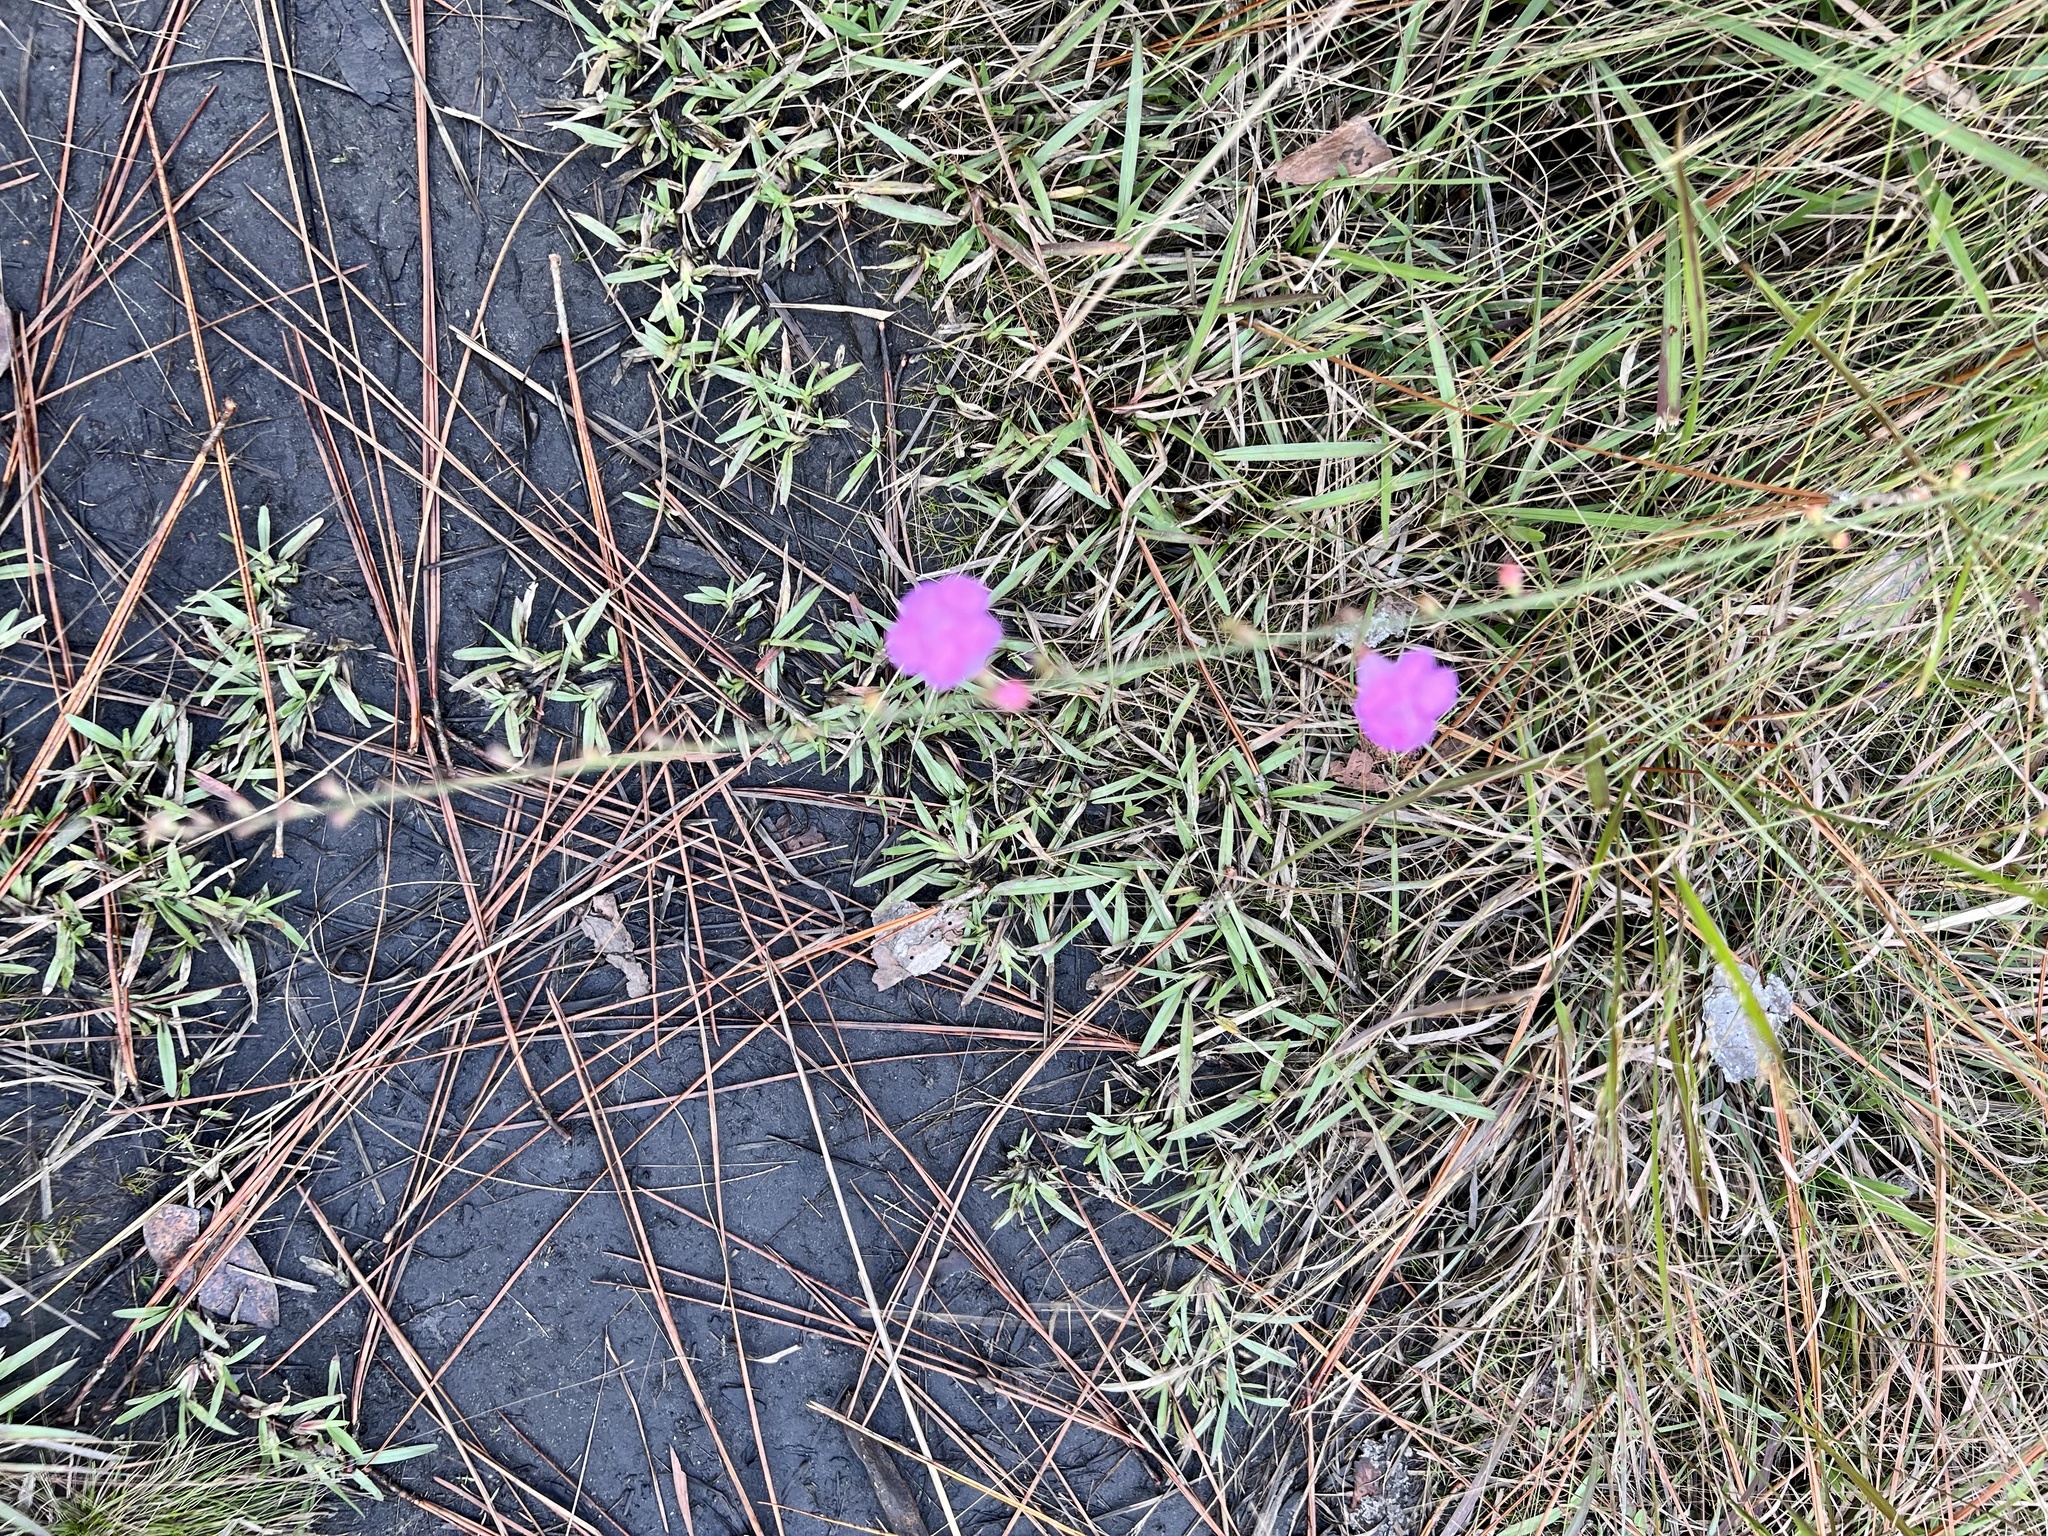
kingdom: Plantae
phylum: Tracheophyta
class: Magnoliopsida
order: Lamiales
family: Orobanchaceae
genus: Agalinis
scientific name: Agalinis aphylla
